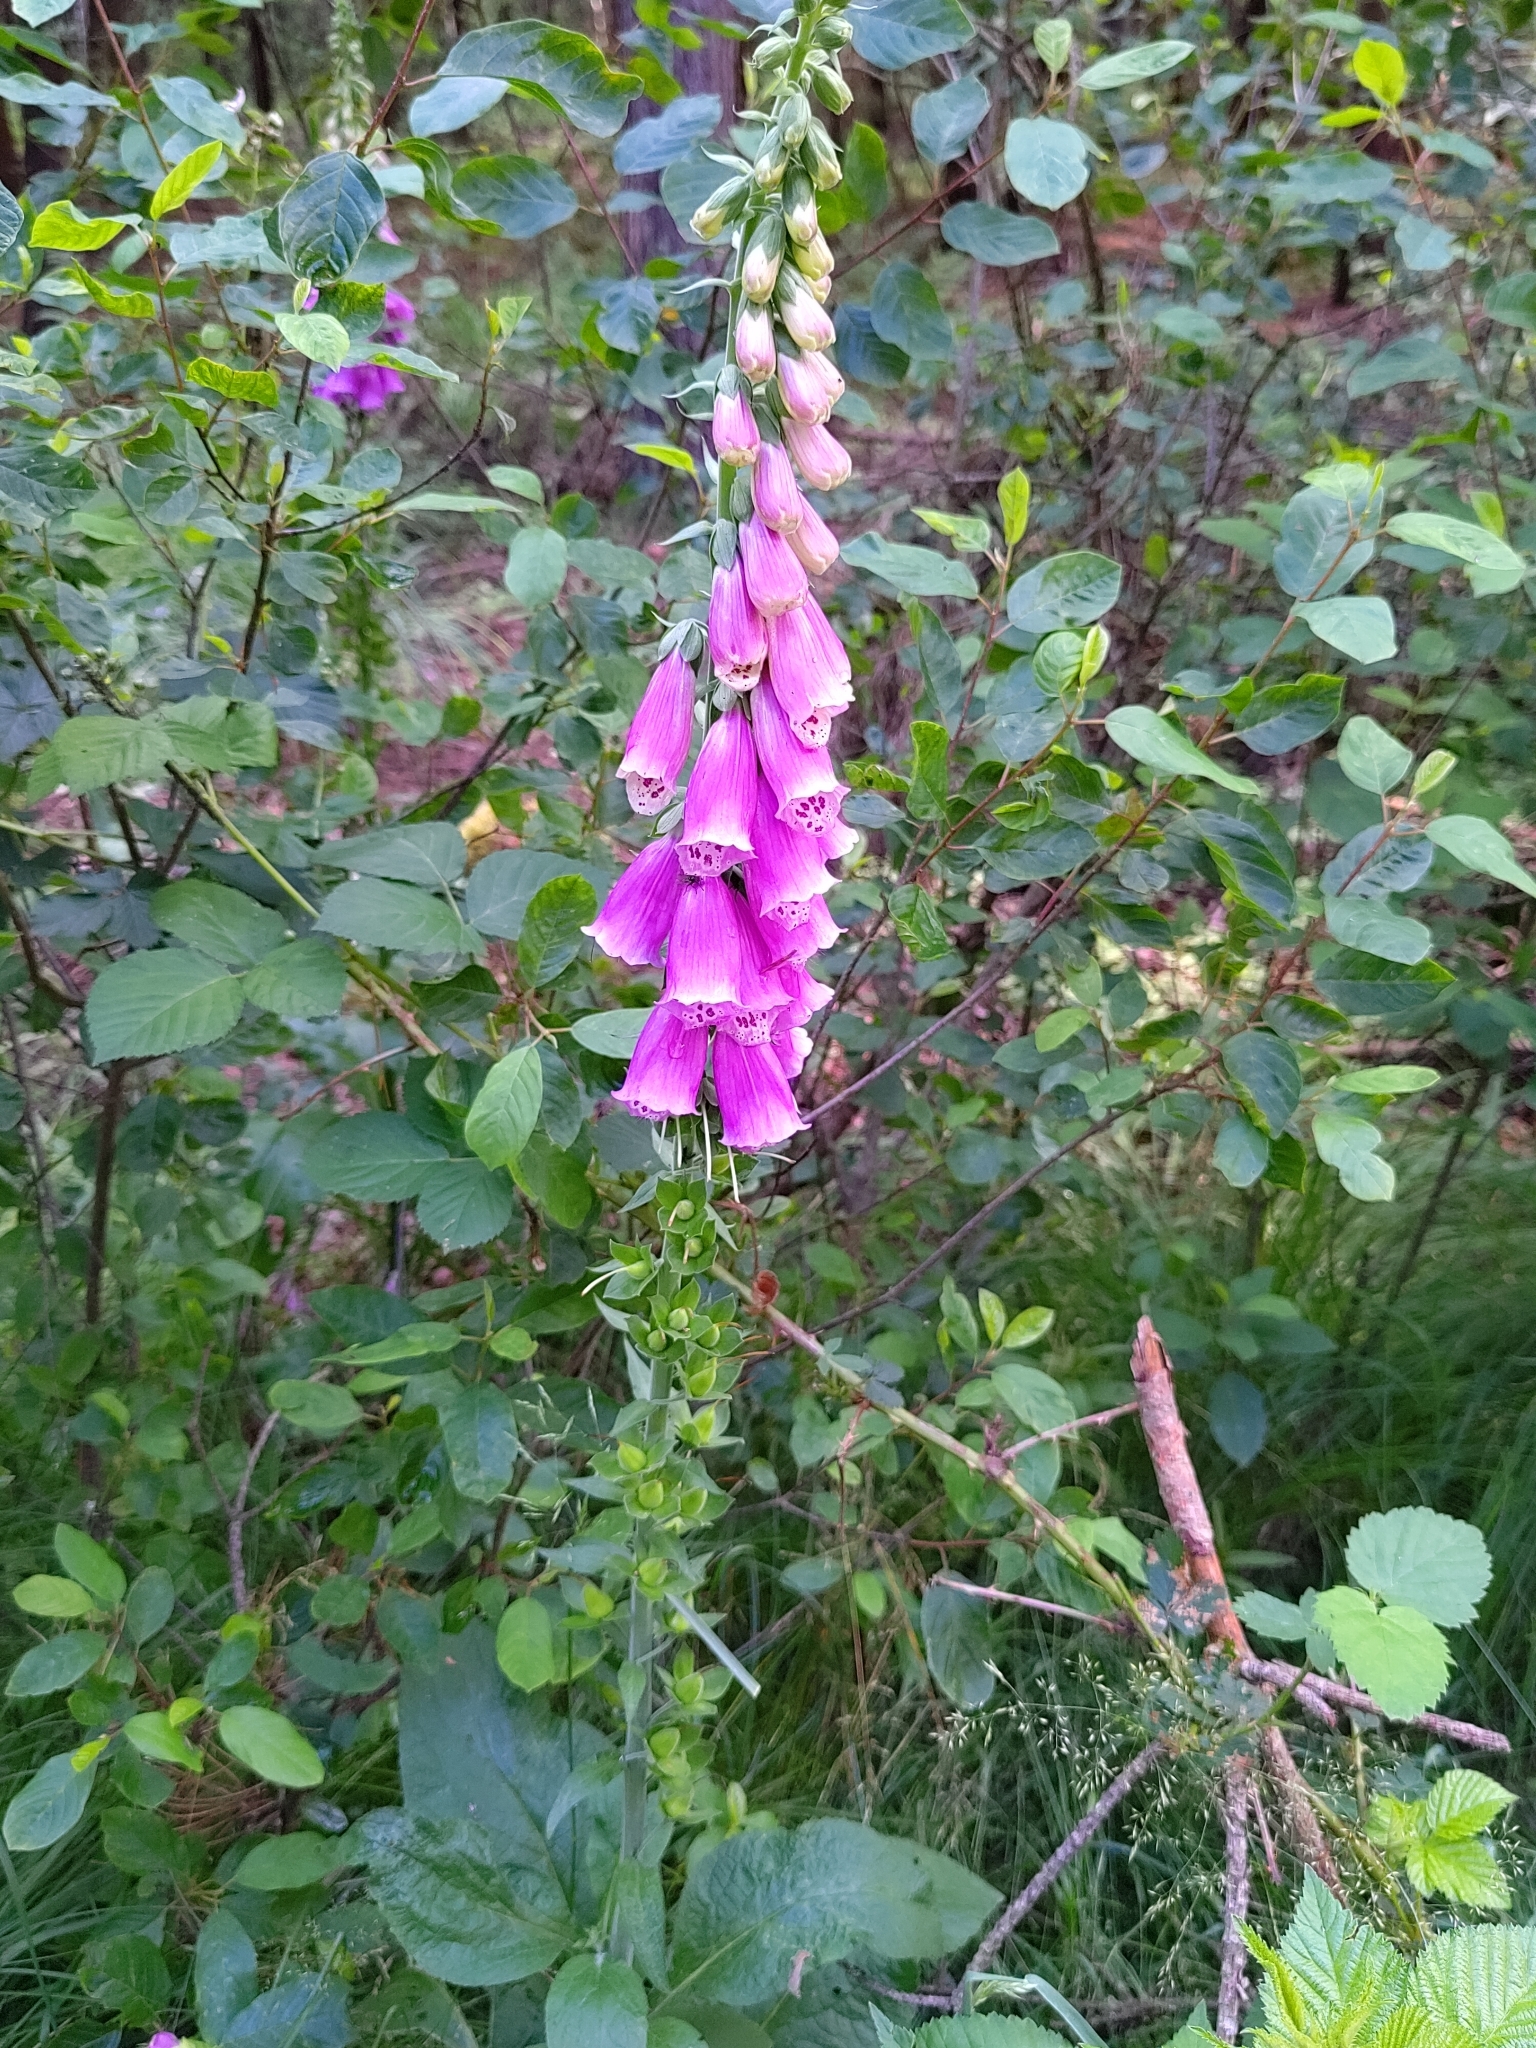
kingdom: Plantae
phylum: Tracheophyta
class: Magnoliopsida
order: Lamiales
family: Plantaginaceae
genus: Digitalis
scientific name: Digitalis purpurea
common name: Foxglove
